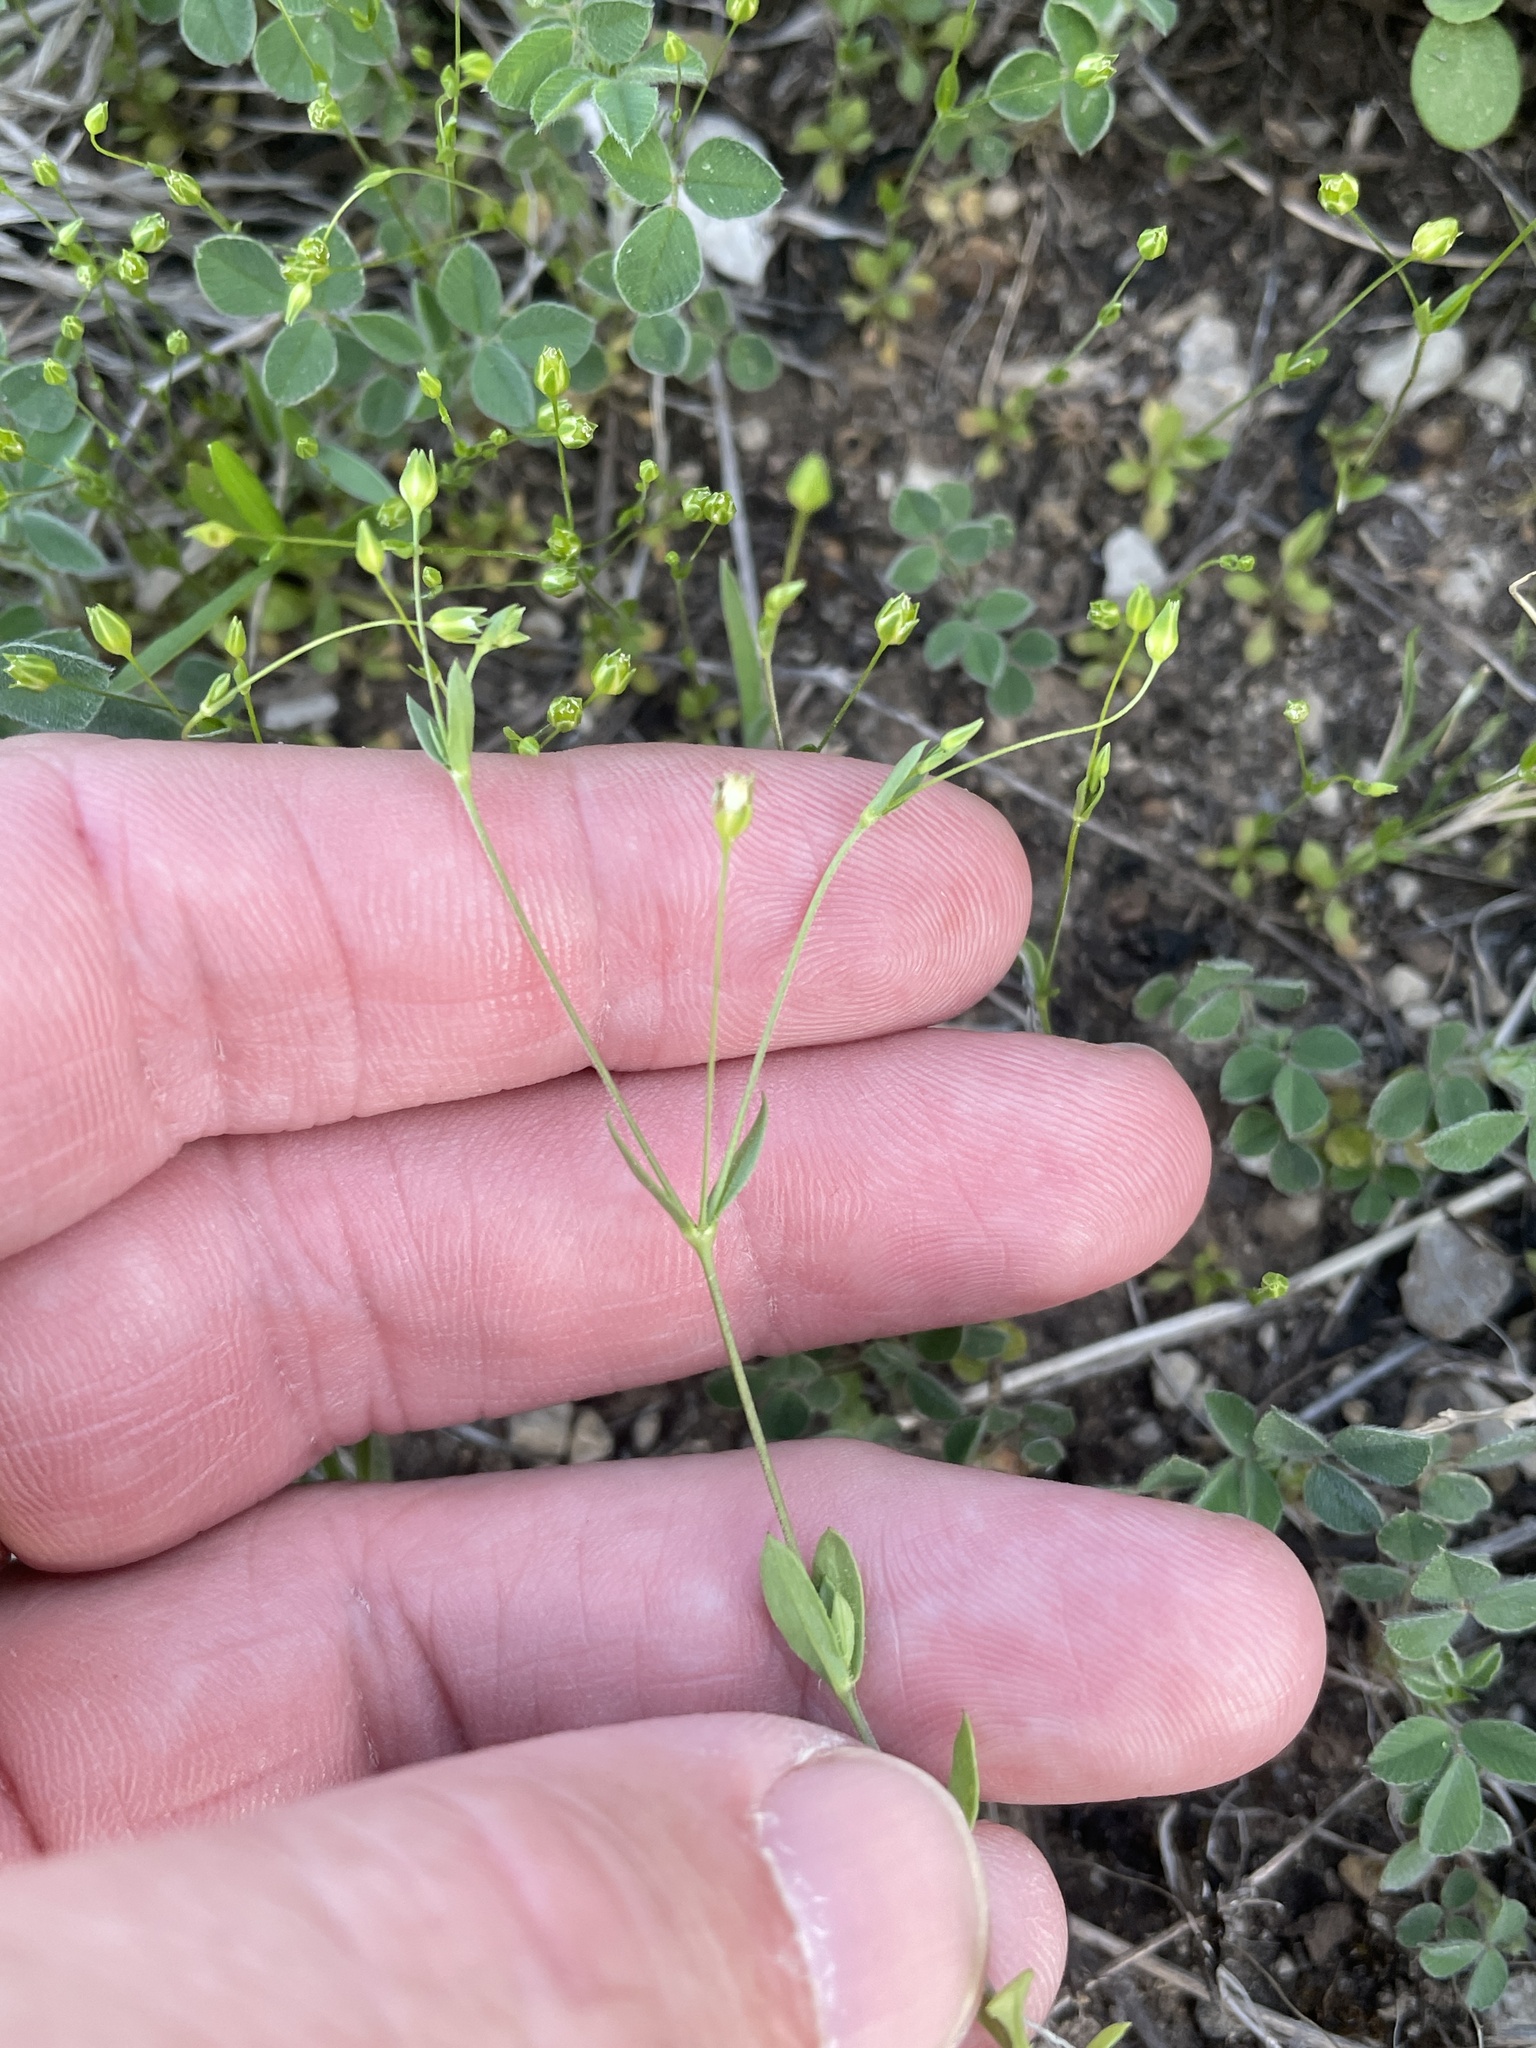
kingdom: Plantae
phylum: Tracheophyta
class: Magnoliopsida
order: Caryophyllales
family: Caryophyllaceae
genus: Arenaria
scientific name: Arenaria benthamii
